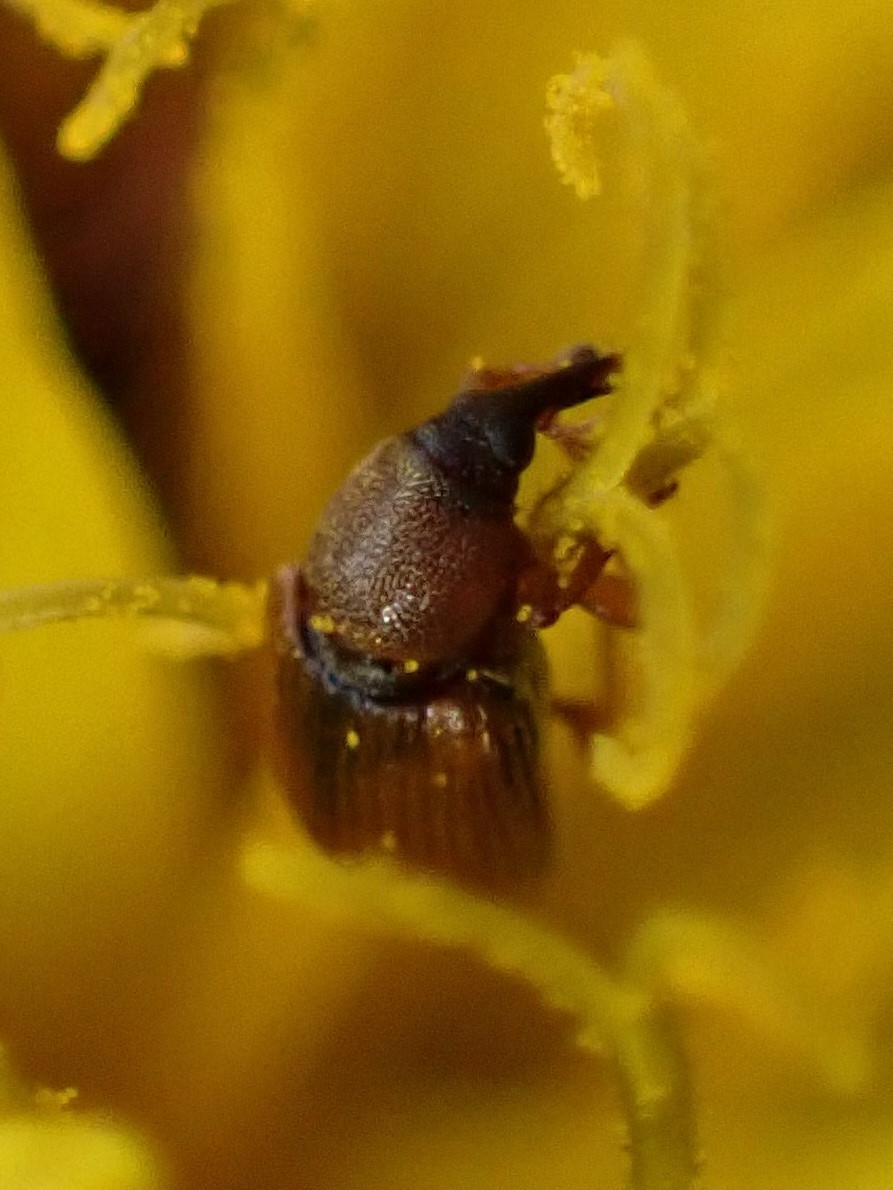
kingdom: Plantae
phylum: Tracheophyta
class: Magnoliopsida
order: Ranunculales
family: Ranunculaceae
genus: Ranunculus
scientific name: Ranunculus abortivus
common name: Early wood buttercup
